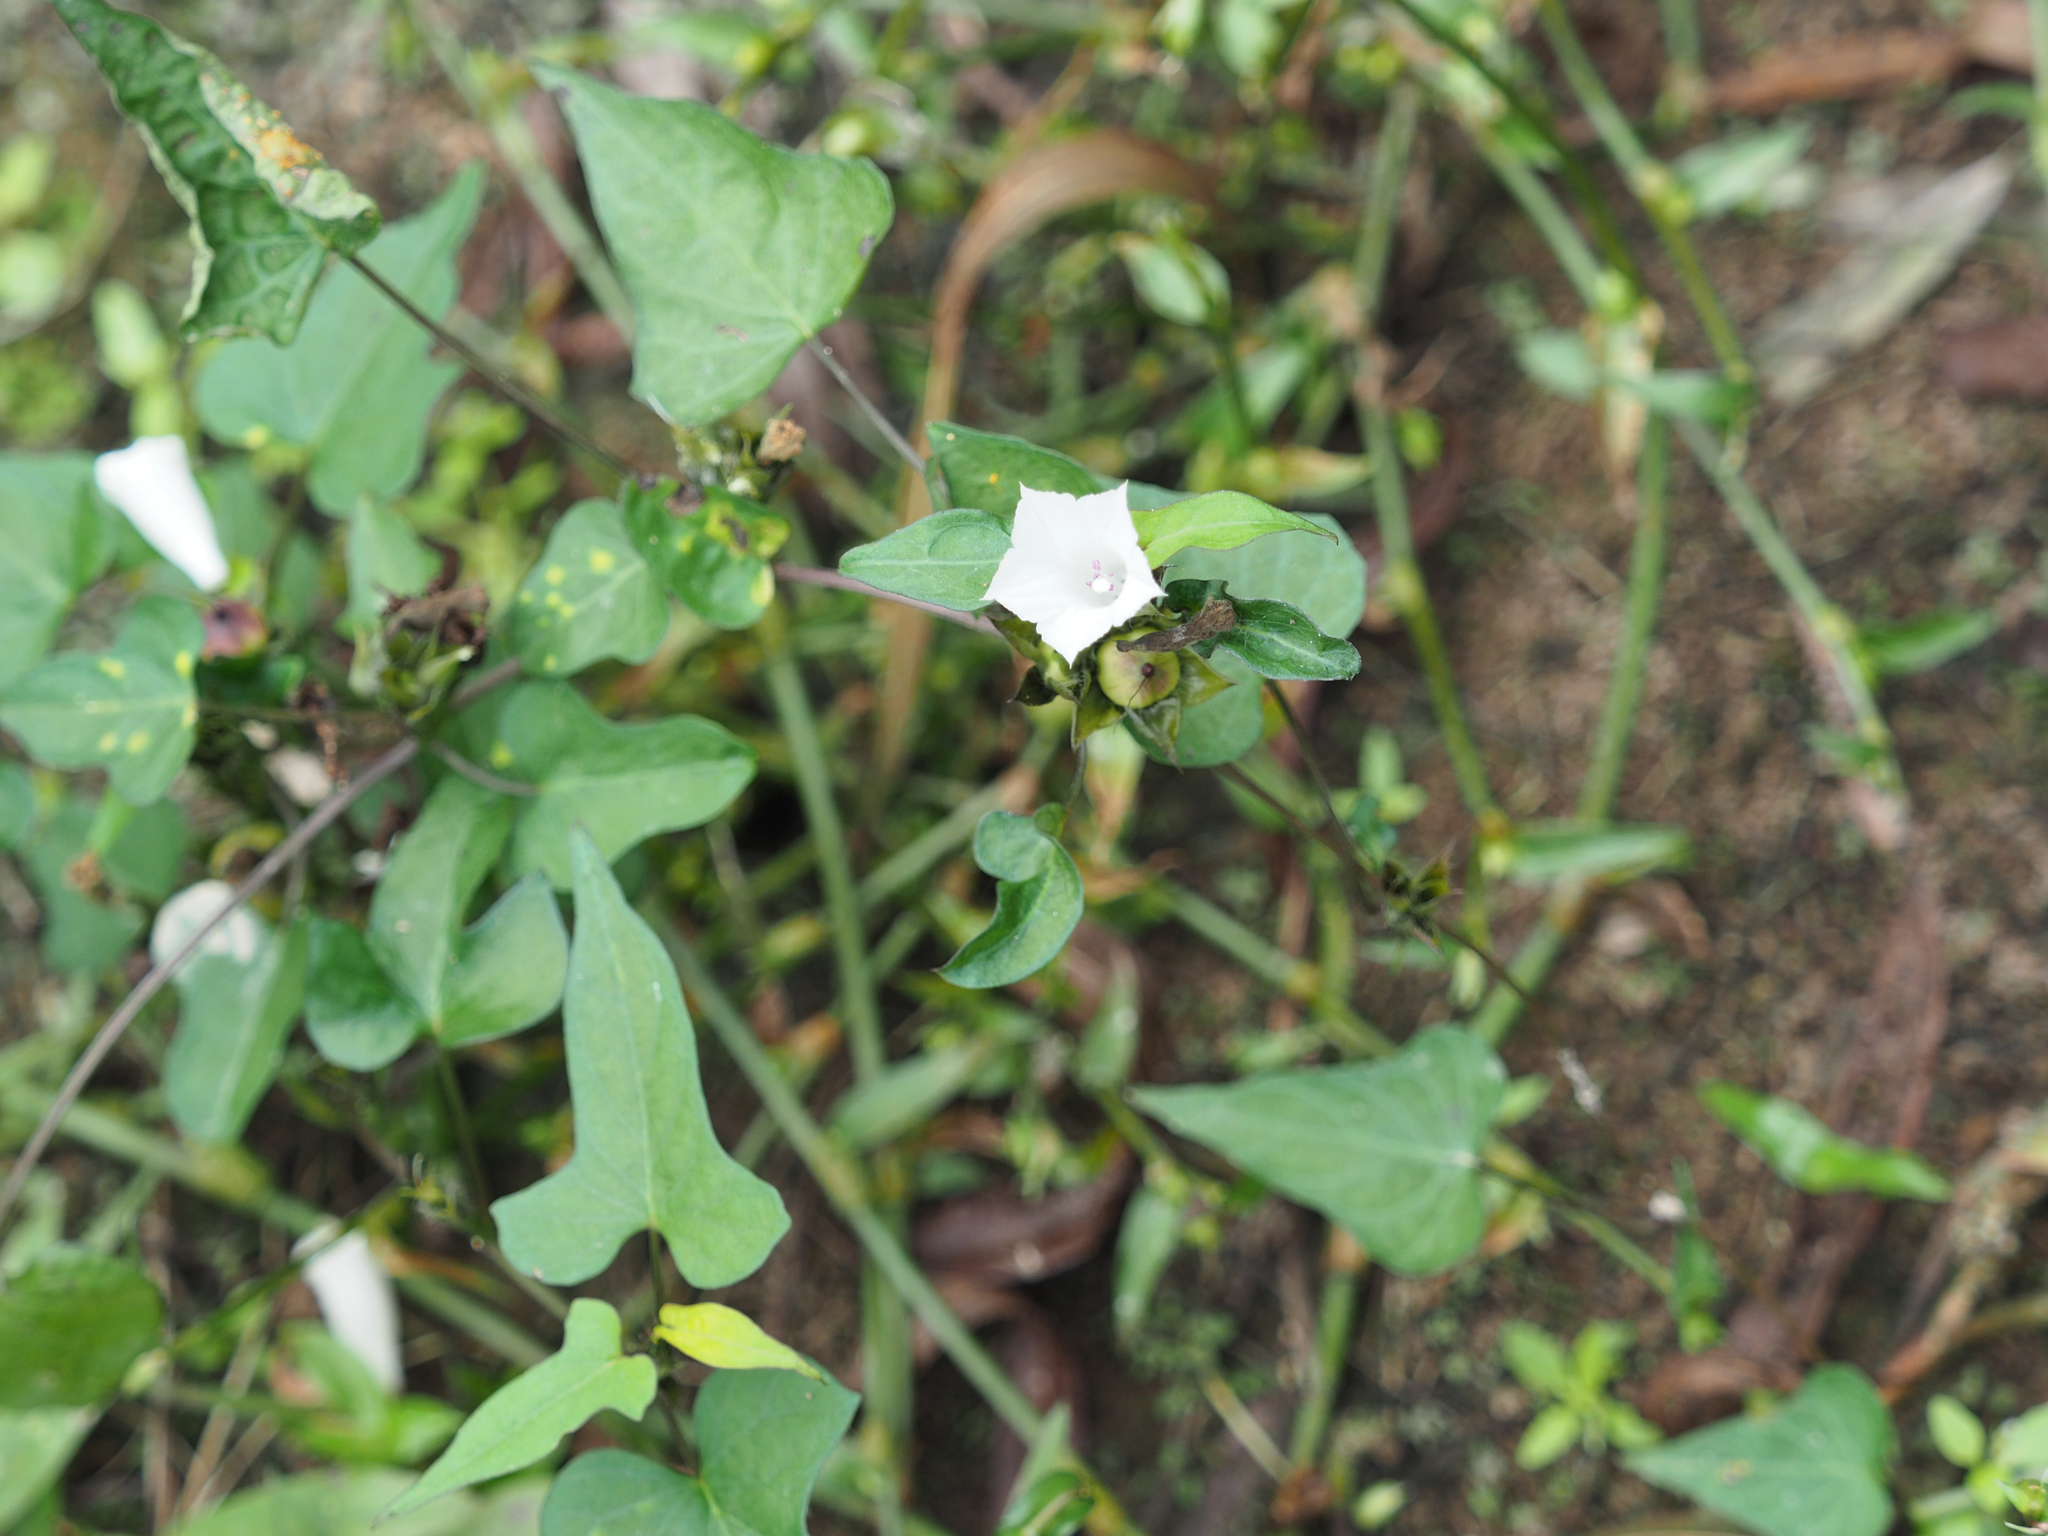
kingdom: Plantae
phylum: Tracheophyta
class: Magnoliopsida
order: Solanales
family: Convolvulaceae
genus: Ipomoea
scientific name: Ipomoea lacunosa
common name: White morning-glory
